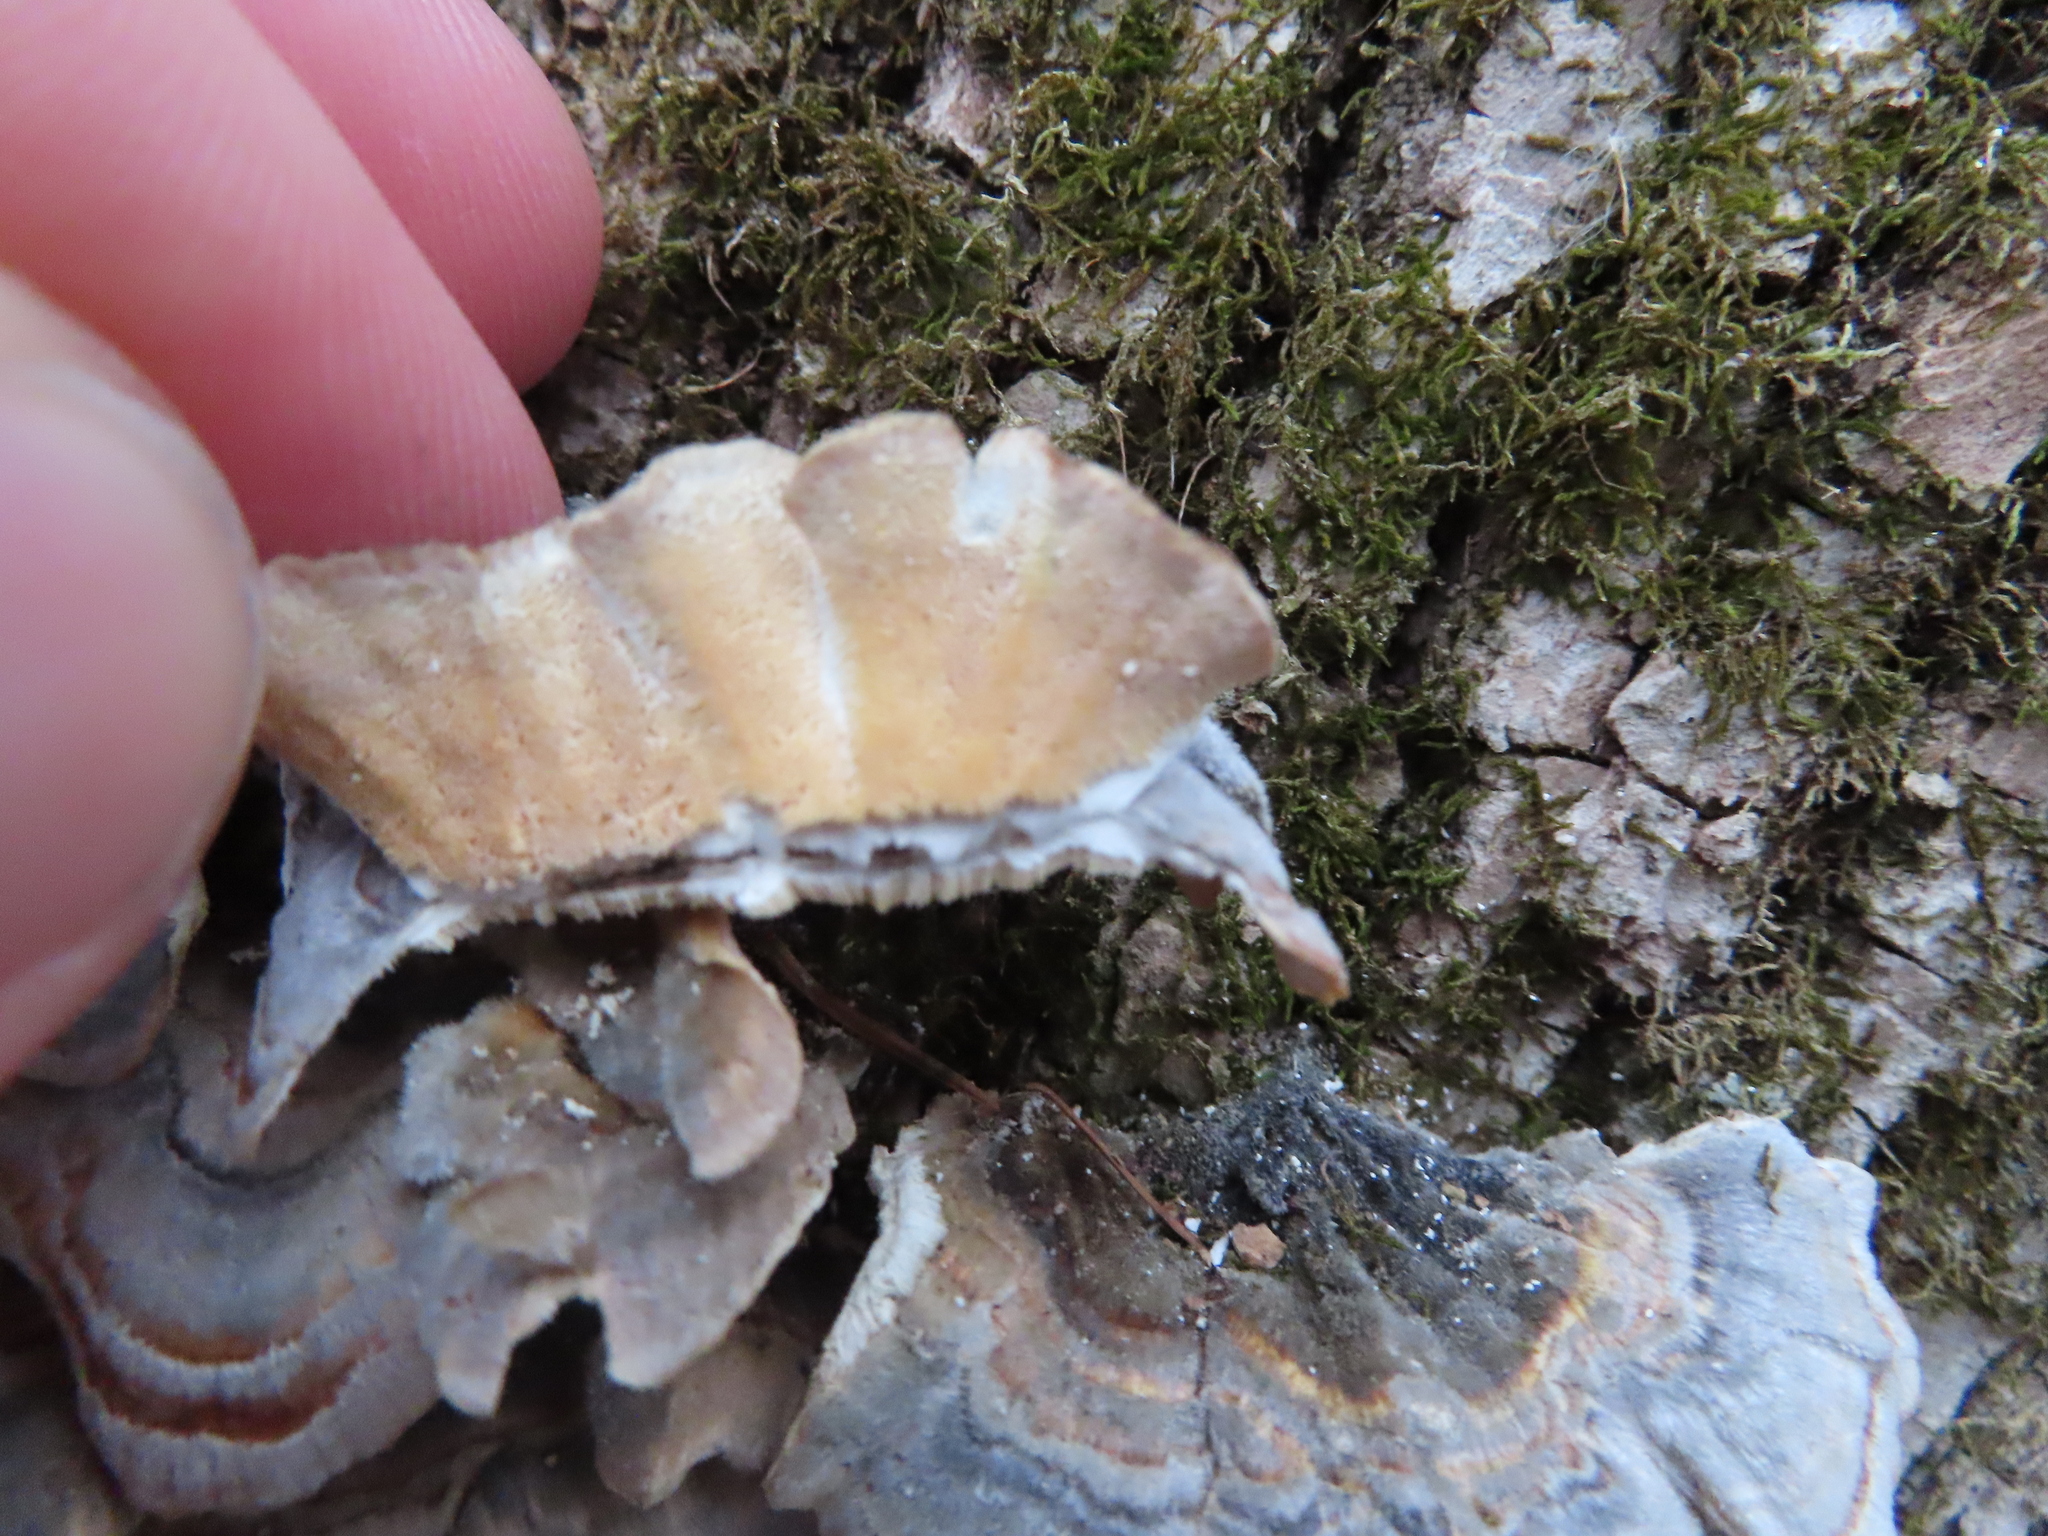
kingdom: Fungi
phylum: Basidiomycota
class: Agaricomycetes
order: Polyporales
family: Polyporaceae
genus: Trametes
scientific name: Trametes versicolor
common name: Turkeytail
